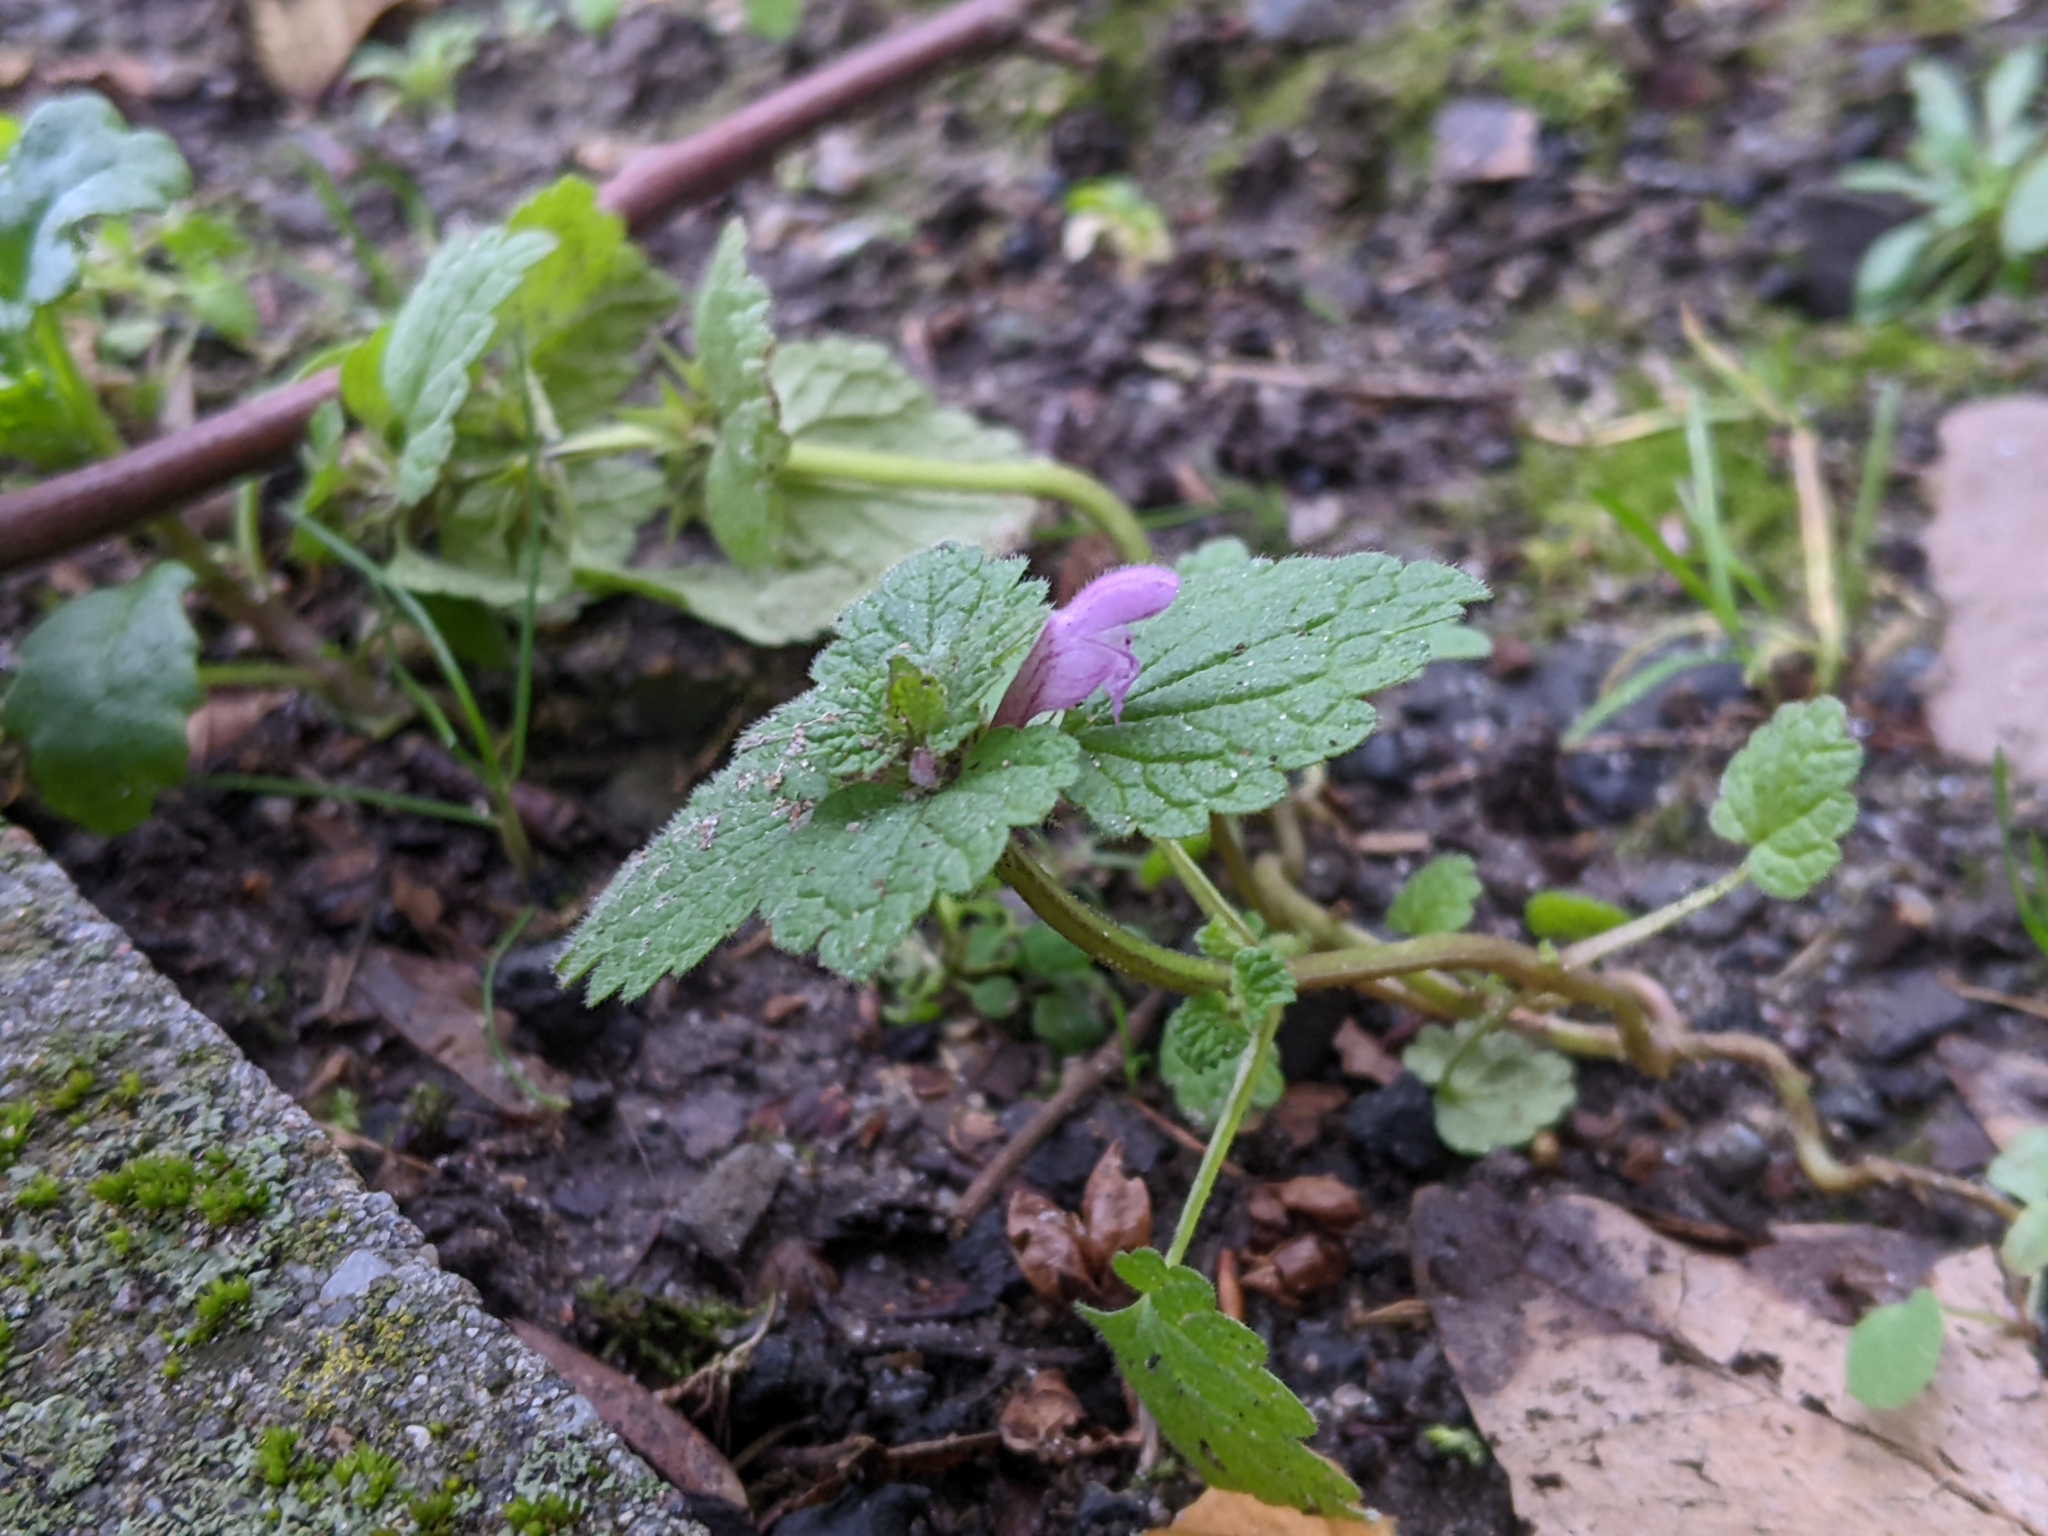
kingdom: Plantae
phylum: Tracheophyta
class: Magnoliopsida
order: Lamiales
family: Lamiaceae
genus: Lamium
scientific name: Lamium purpureum
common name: Red dead-nettle
